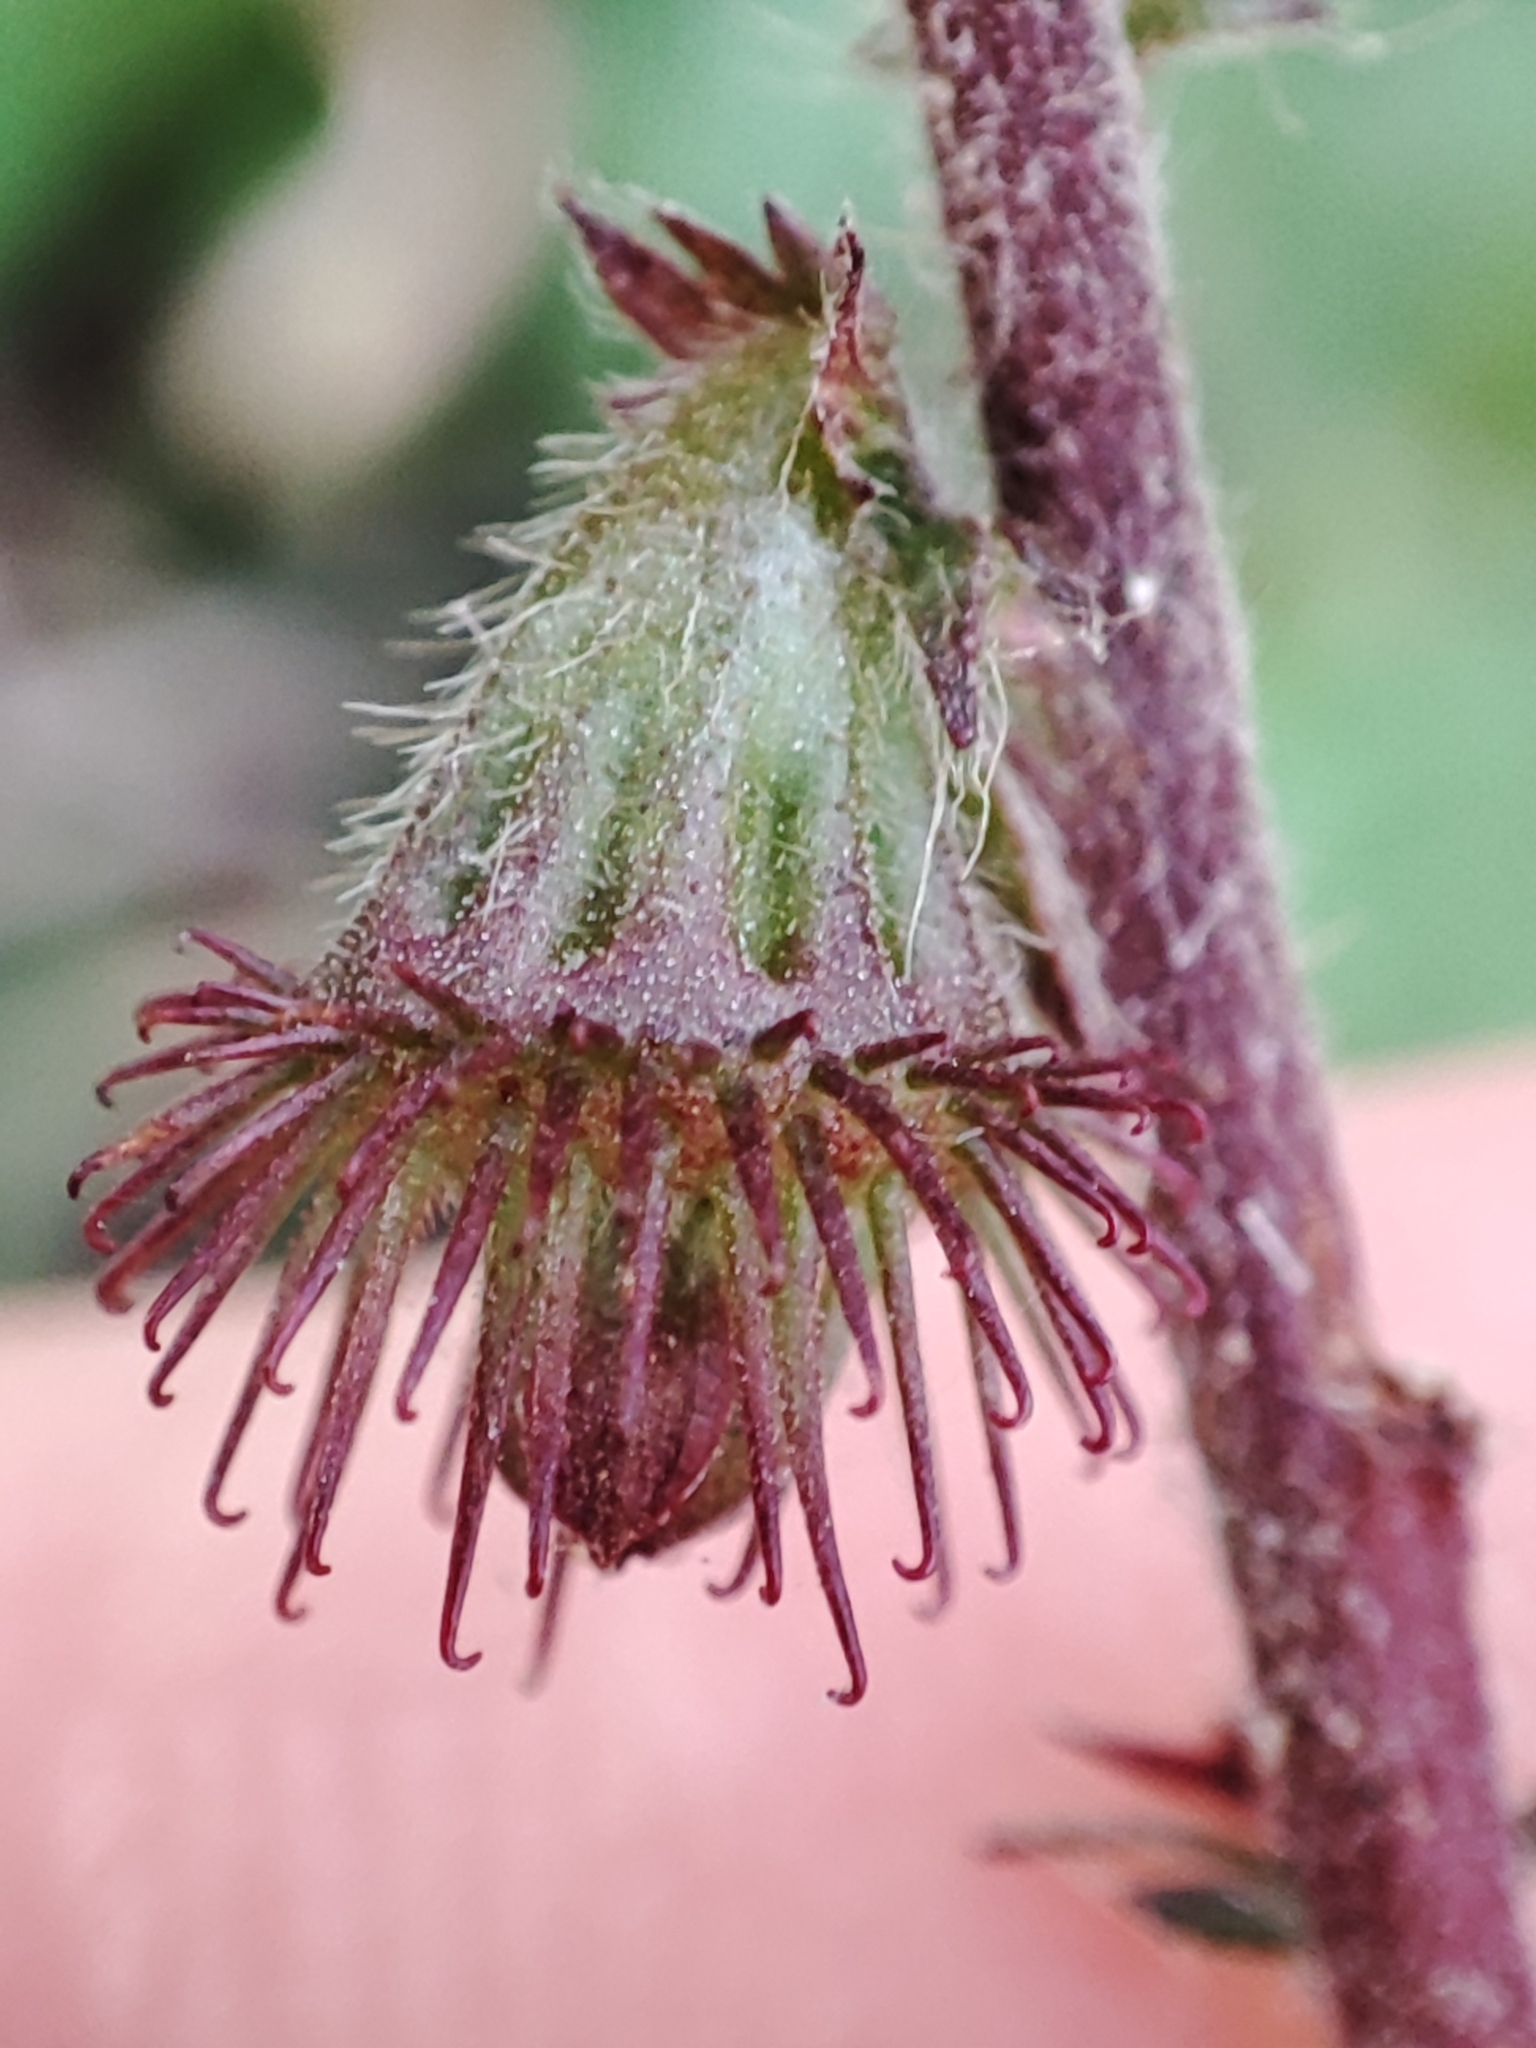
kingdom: Plantae
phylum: Tracheophyta
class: Magnoliopsida
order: Rosales
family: Rosaceae
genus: Agrimonia
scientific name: Agrimonia eupatoria
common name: Agrimony
